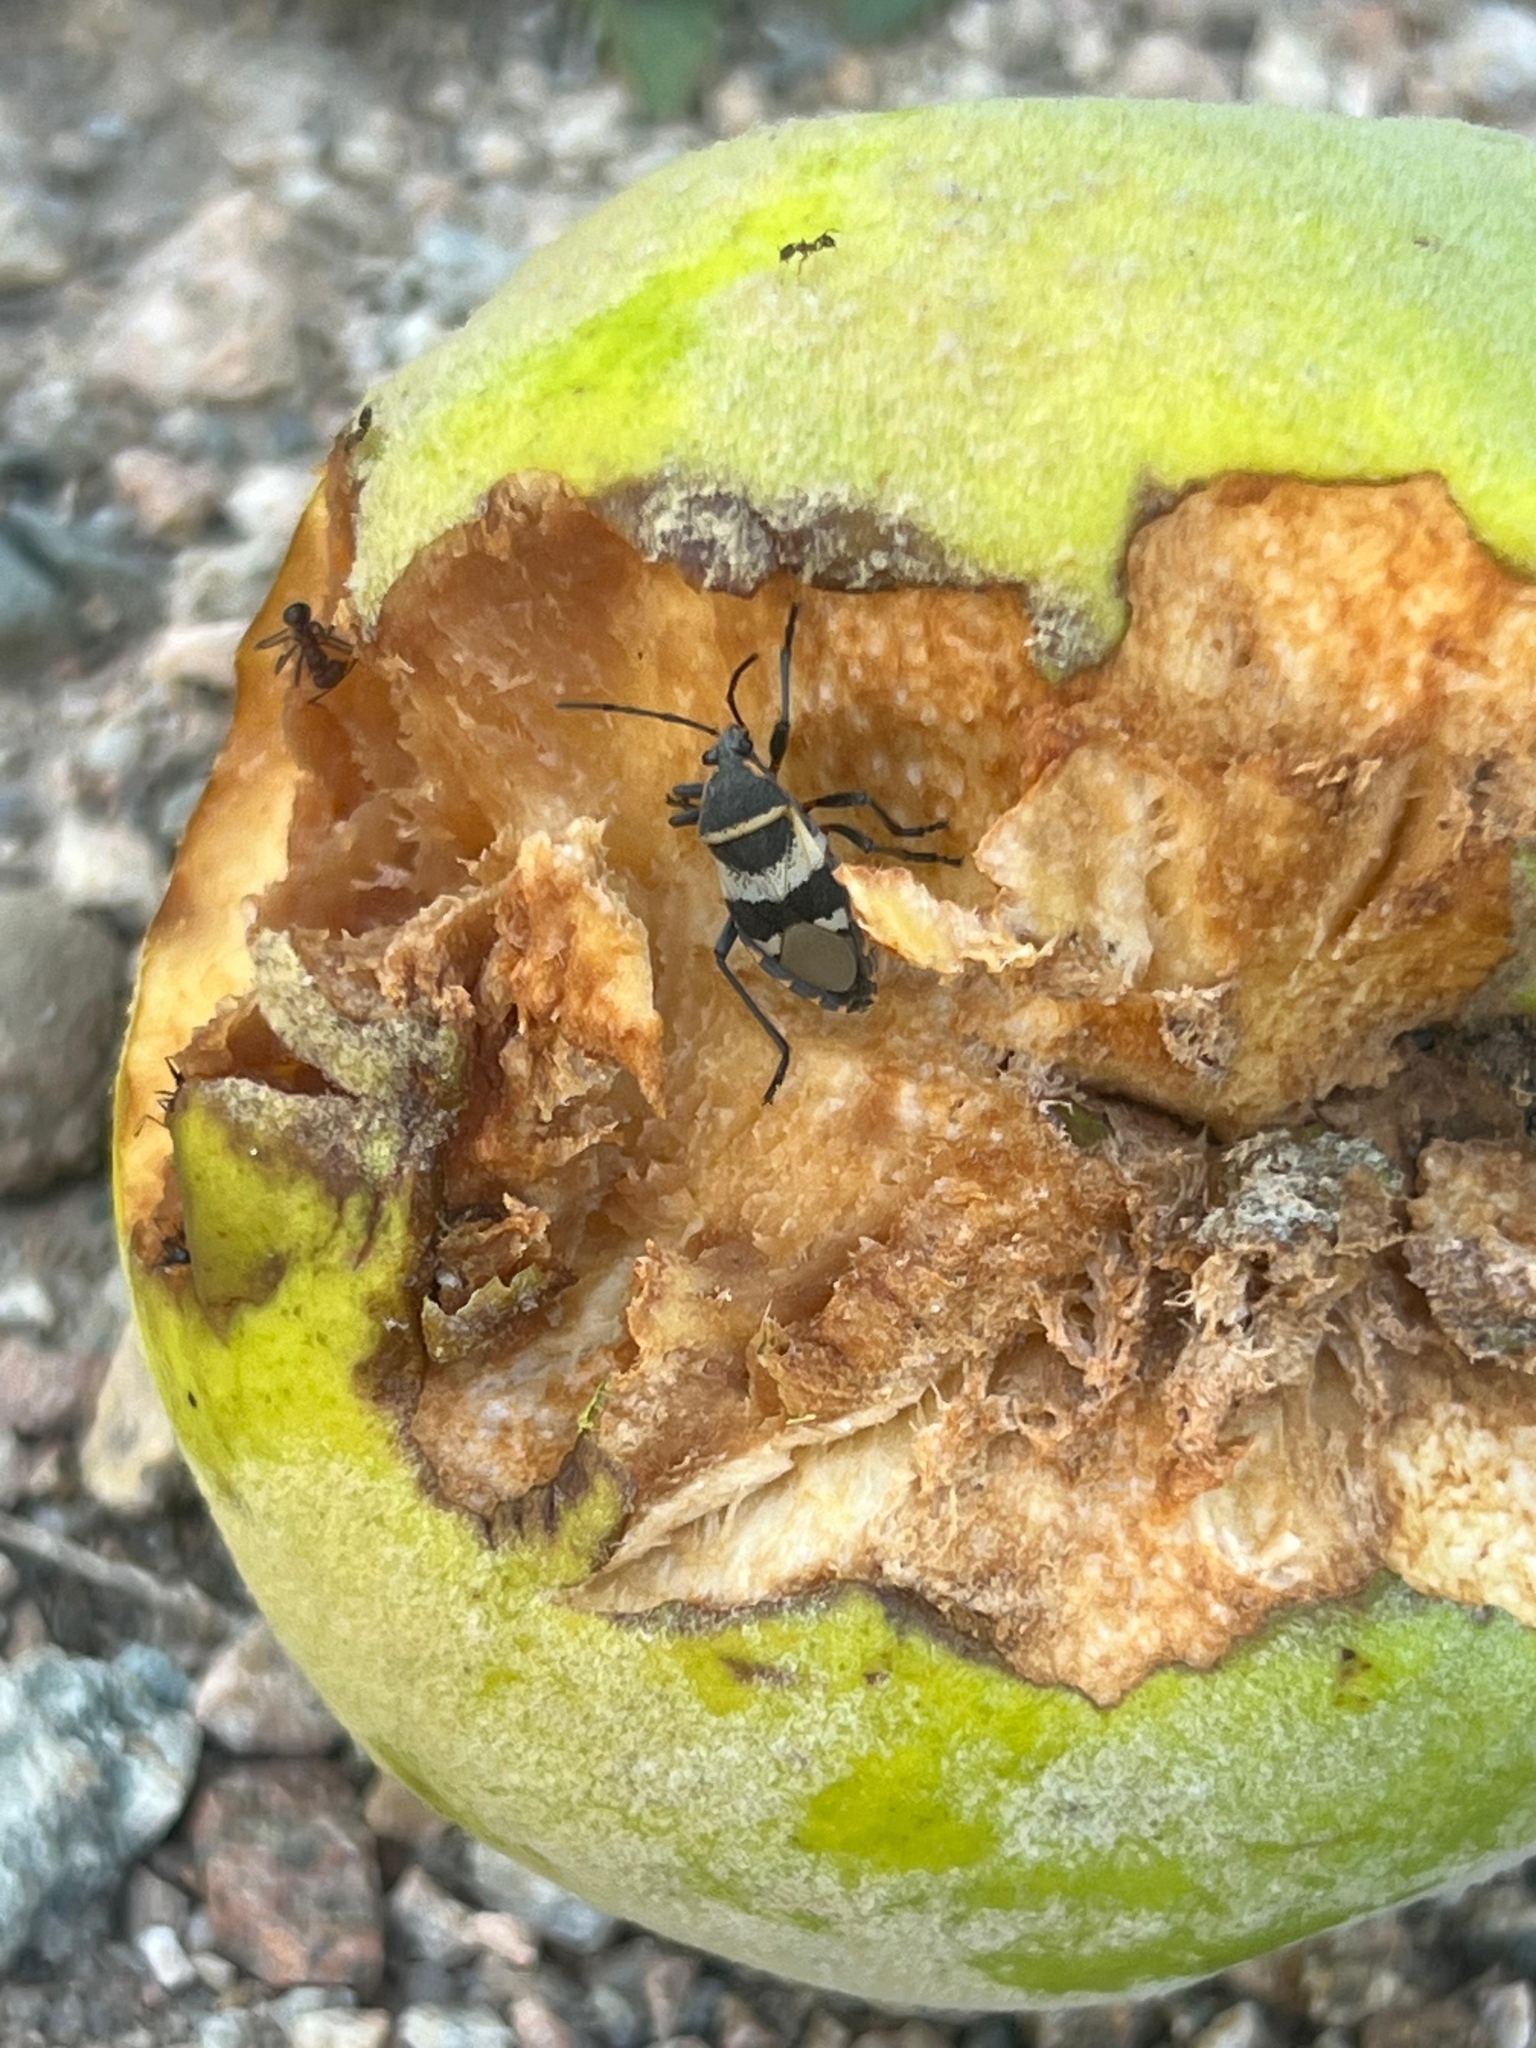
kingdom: Animalia
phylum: Arthropoda
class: Insecta
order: Hemiptera
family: Largidae
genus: Largus
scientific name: Largus fasciatus
